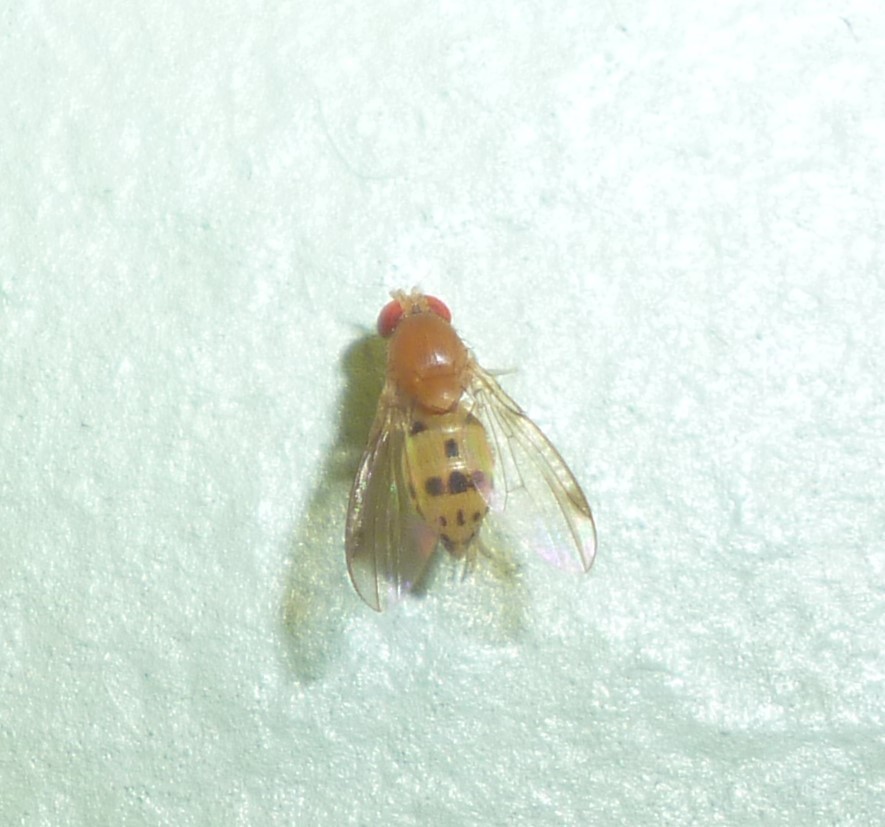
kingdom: Animalia
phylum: Arthropoda
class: Insecta
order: Diptera
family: Drosophilidae
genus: Leucophenga
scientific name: Leucophenga varia
